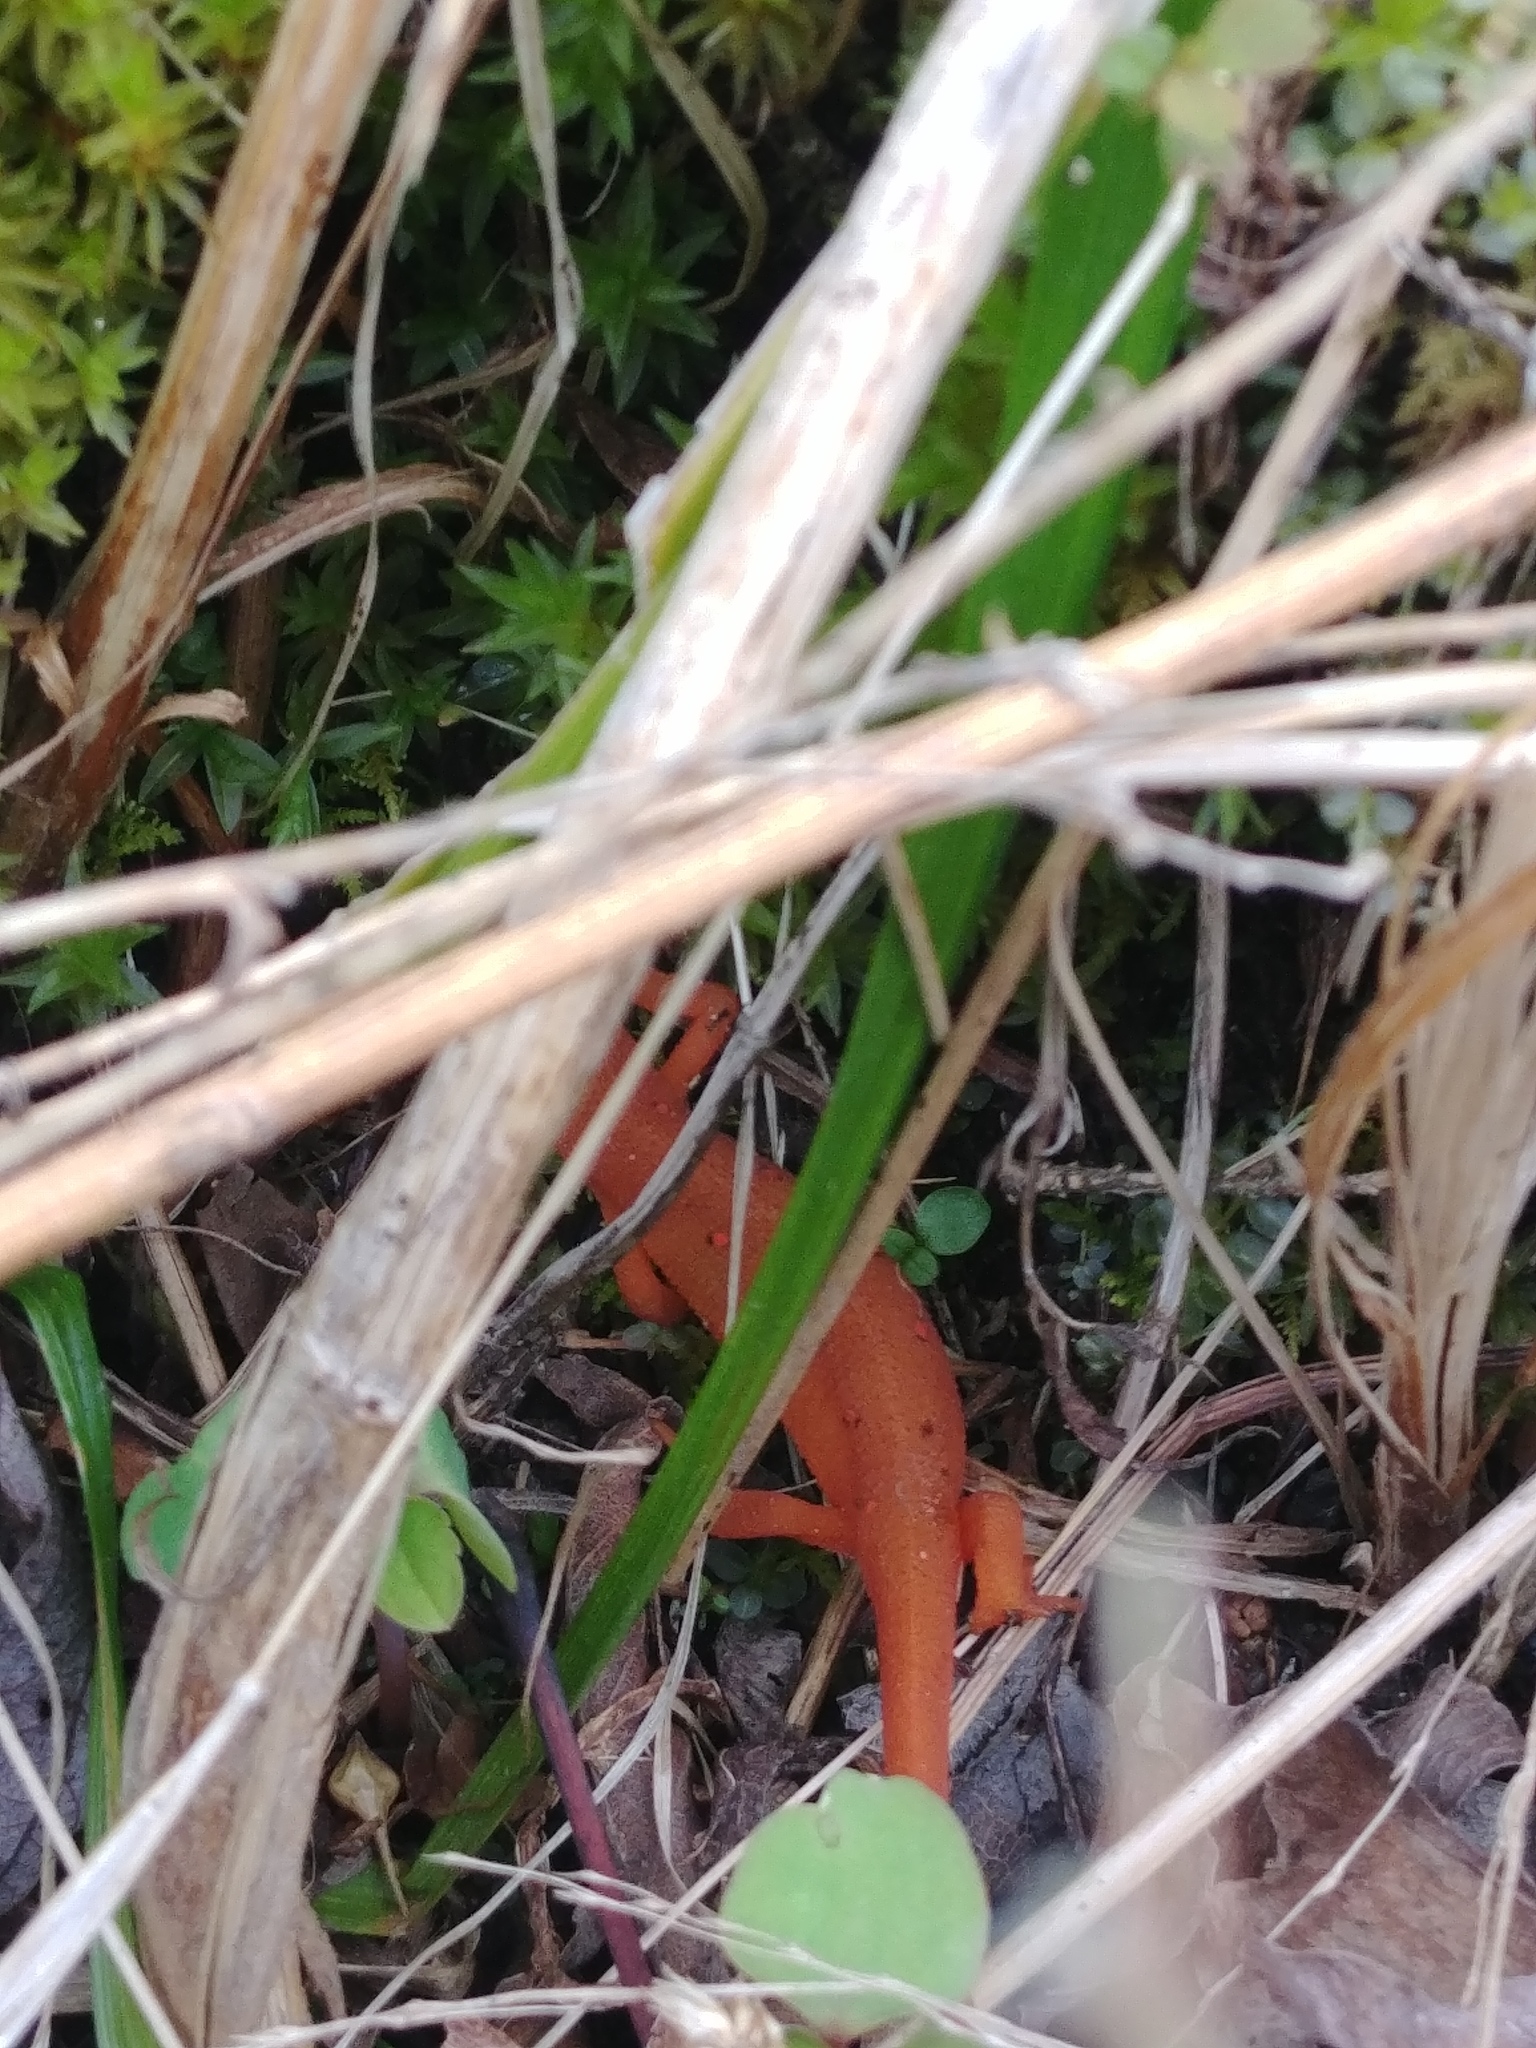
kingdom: Animalia
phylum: Chordata
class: Amphibia
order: Caudata
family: Salamandridae
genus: Notophthalmus
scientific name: Notophthalmus viridescens
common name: Eastern newt
